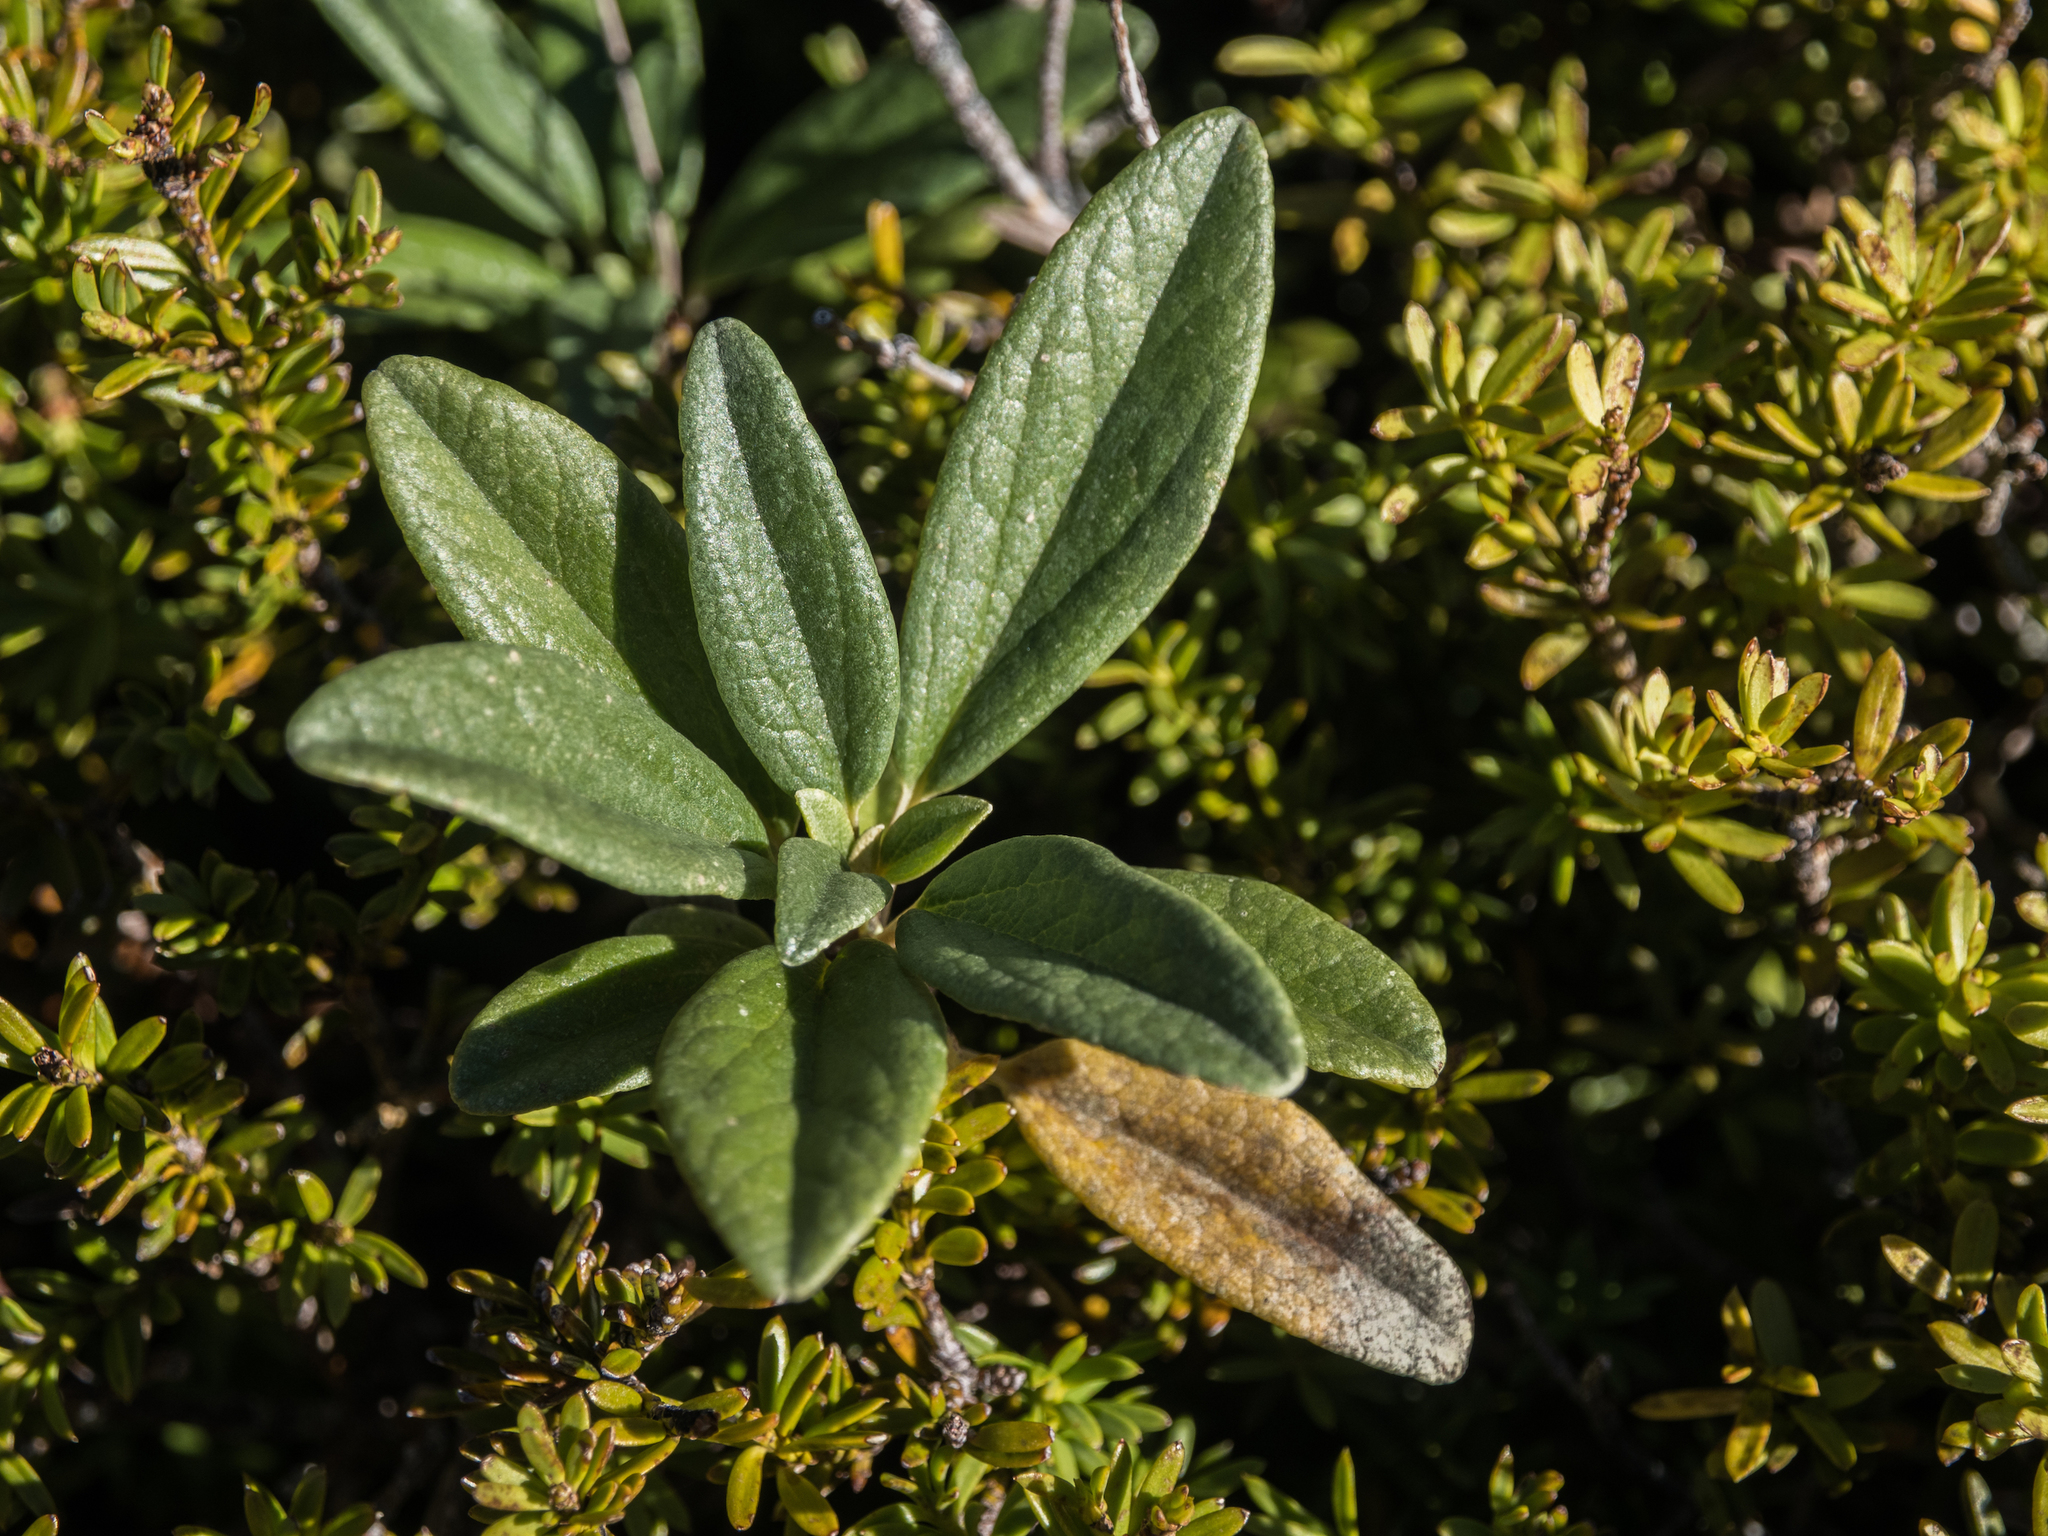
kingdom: Plantae
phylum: Tracheophyta
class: Magnoliopsida
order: Asterales
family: Asteraceae
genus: Brachyglottis
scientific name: Brachyglottis revoluta
